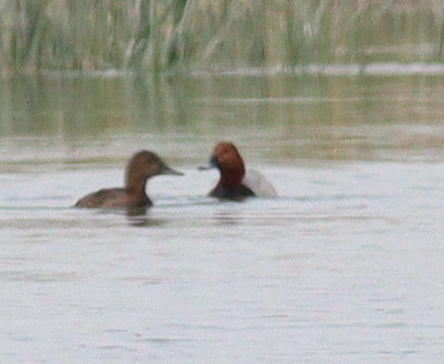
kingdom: Animalia
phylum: Chordata
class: Aves
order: Anseriformes
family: Anatidae
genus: Aythya
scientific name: Aythya ferina
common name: Common pochard
